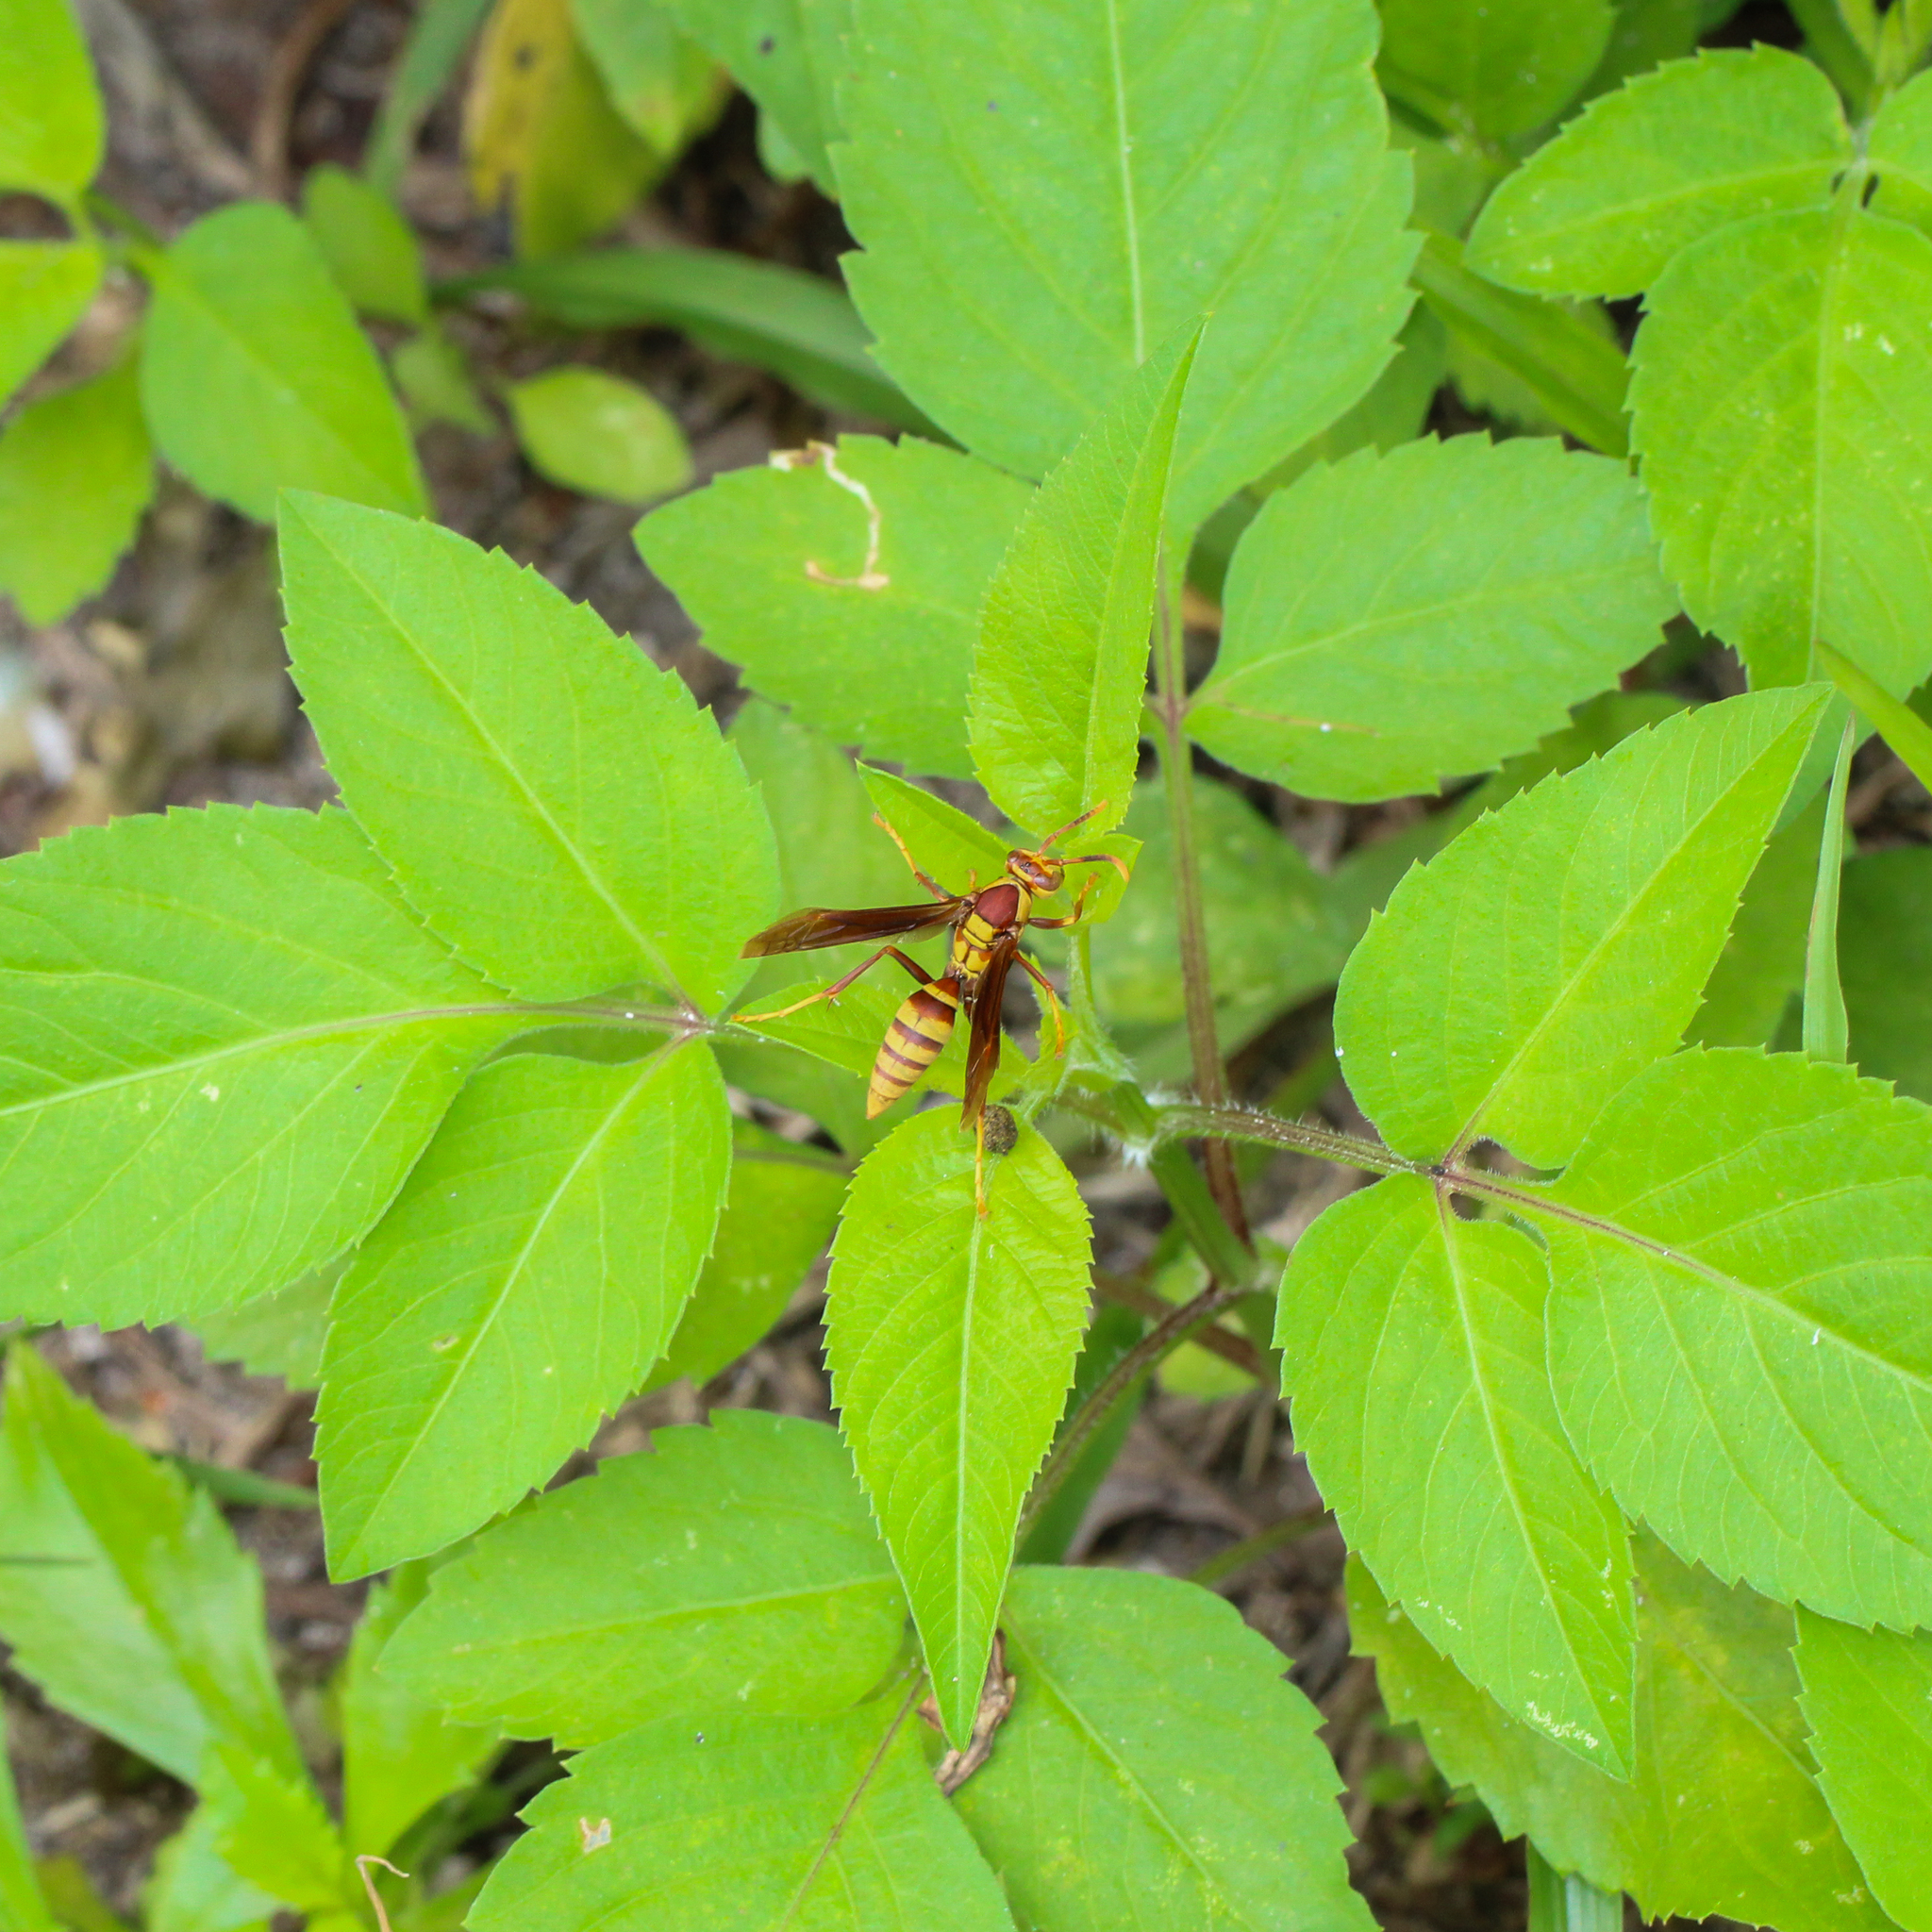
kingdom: Animalia
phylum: Arthropoda
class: Insecta
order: Hymenoptera
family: Eumenidae
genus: Polistes
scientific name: Polistes major
